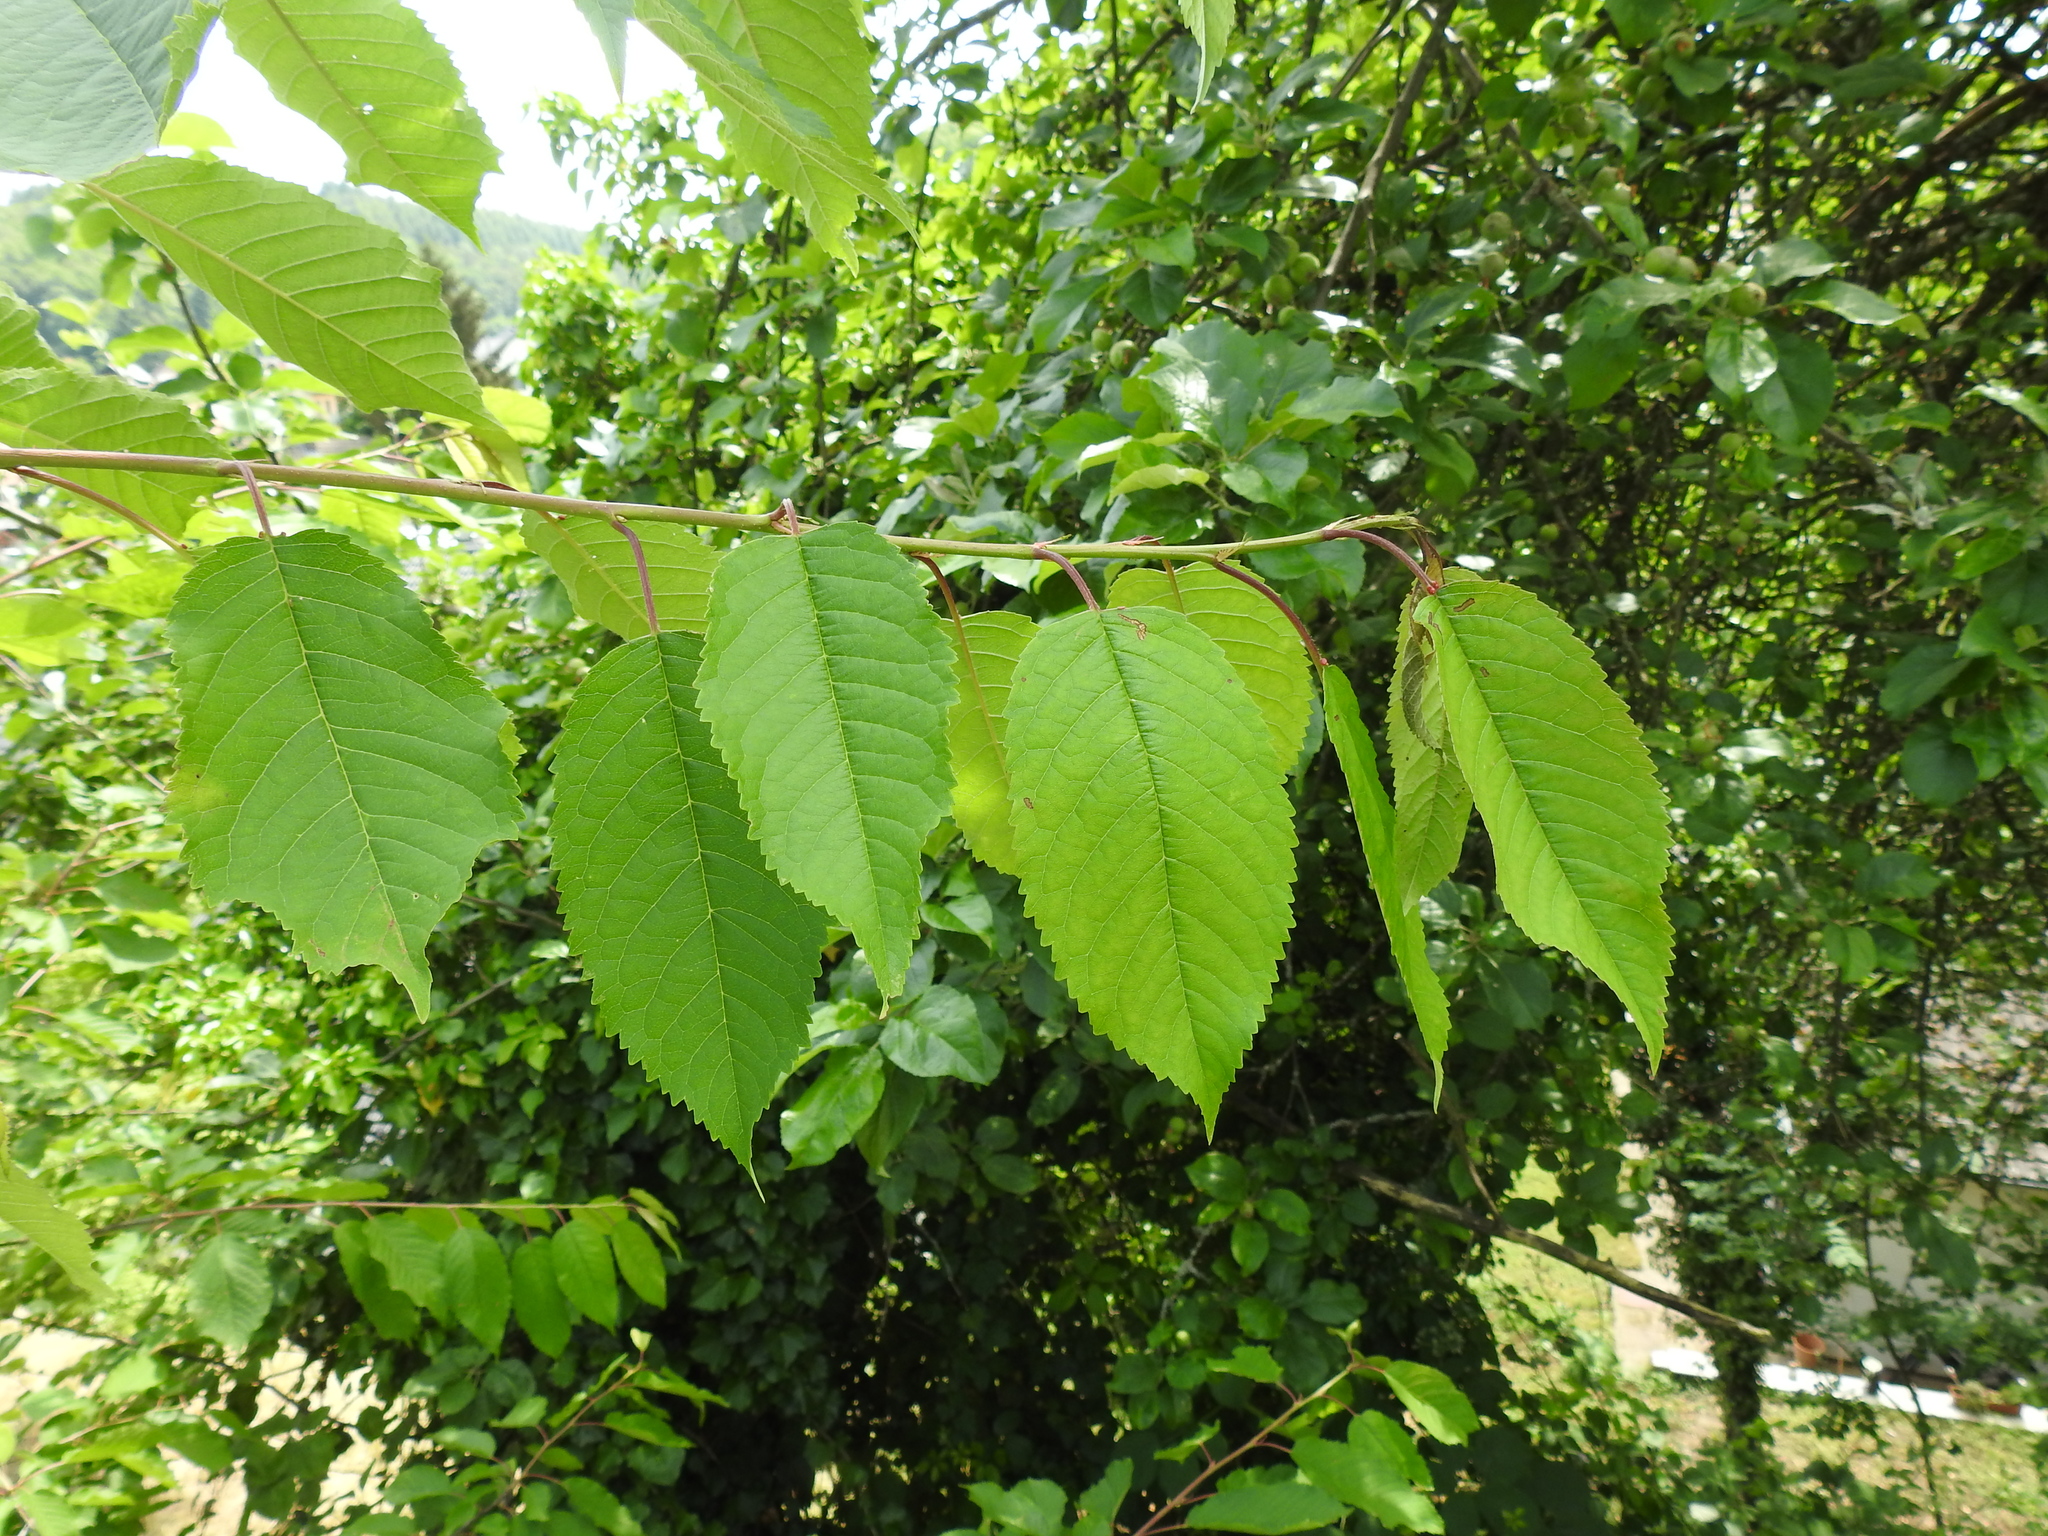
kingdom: Plantae
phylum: Tracheophyta
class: Magnoliopsida
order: Rosales
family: Rosaceae
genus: Prunus
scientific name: Prunus avium
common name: Sweet cherry
